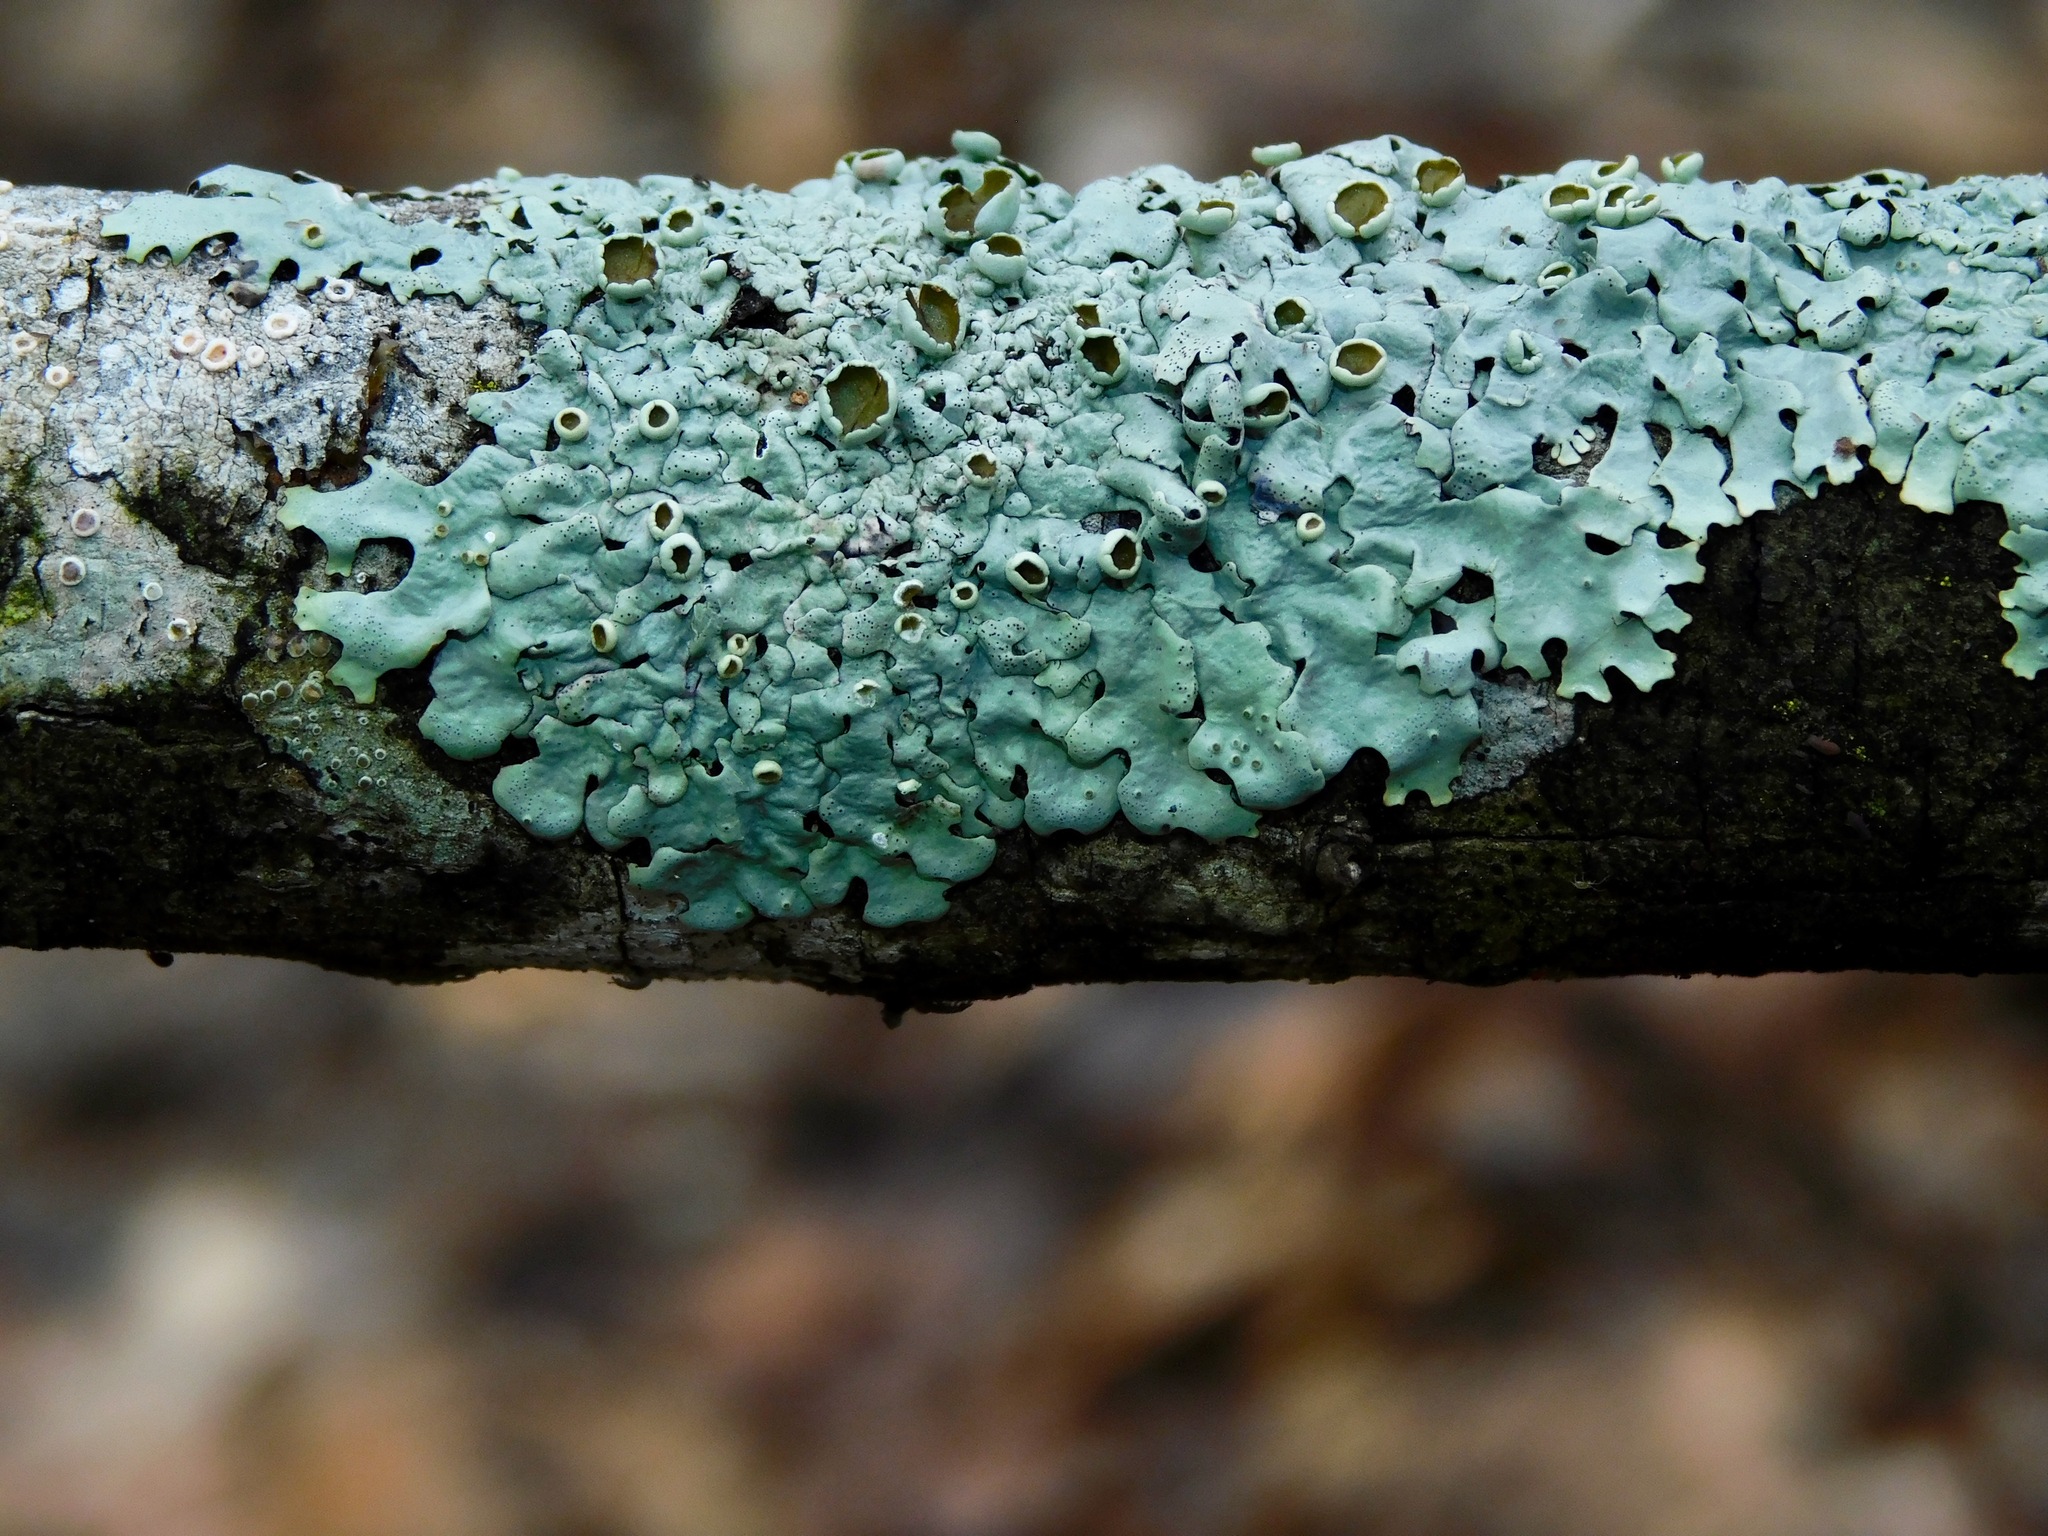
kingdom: Fungi
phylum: Ascomycota
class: Lecanoromycetes
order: Lecanorales
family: Parmeliaceae
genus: Myelochroa
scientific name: Myelochroa galbina
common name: Smooth axil-bristle lichen
